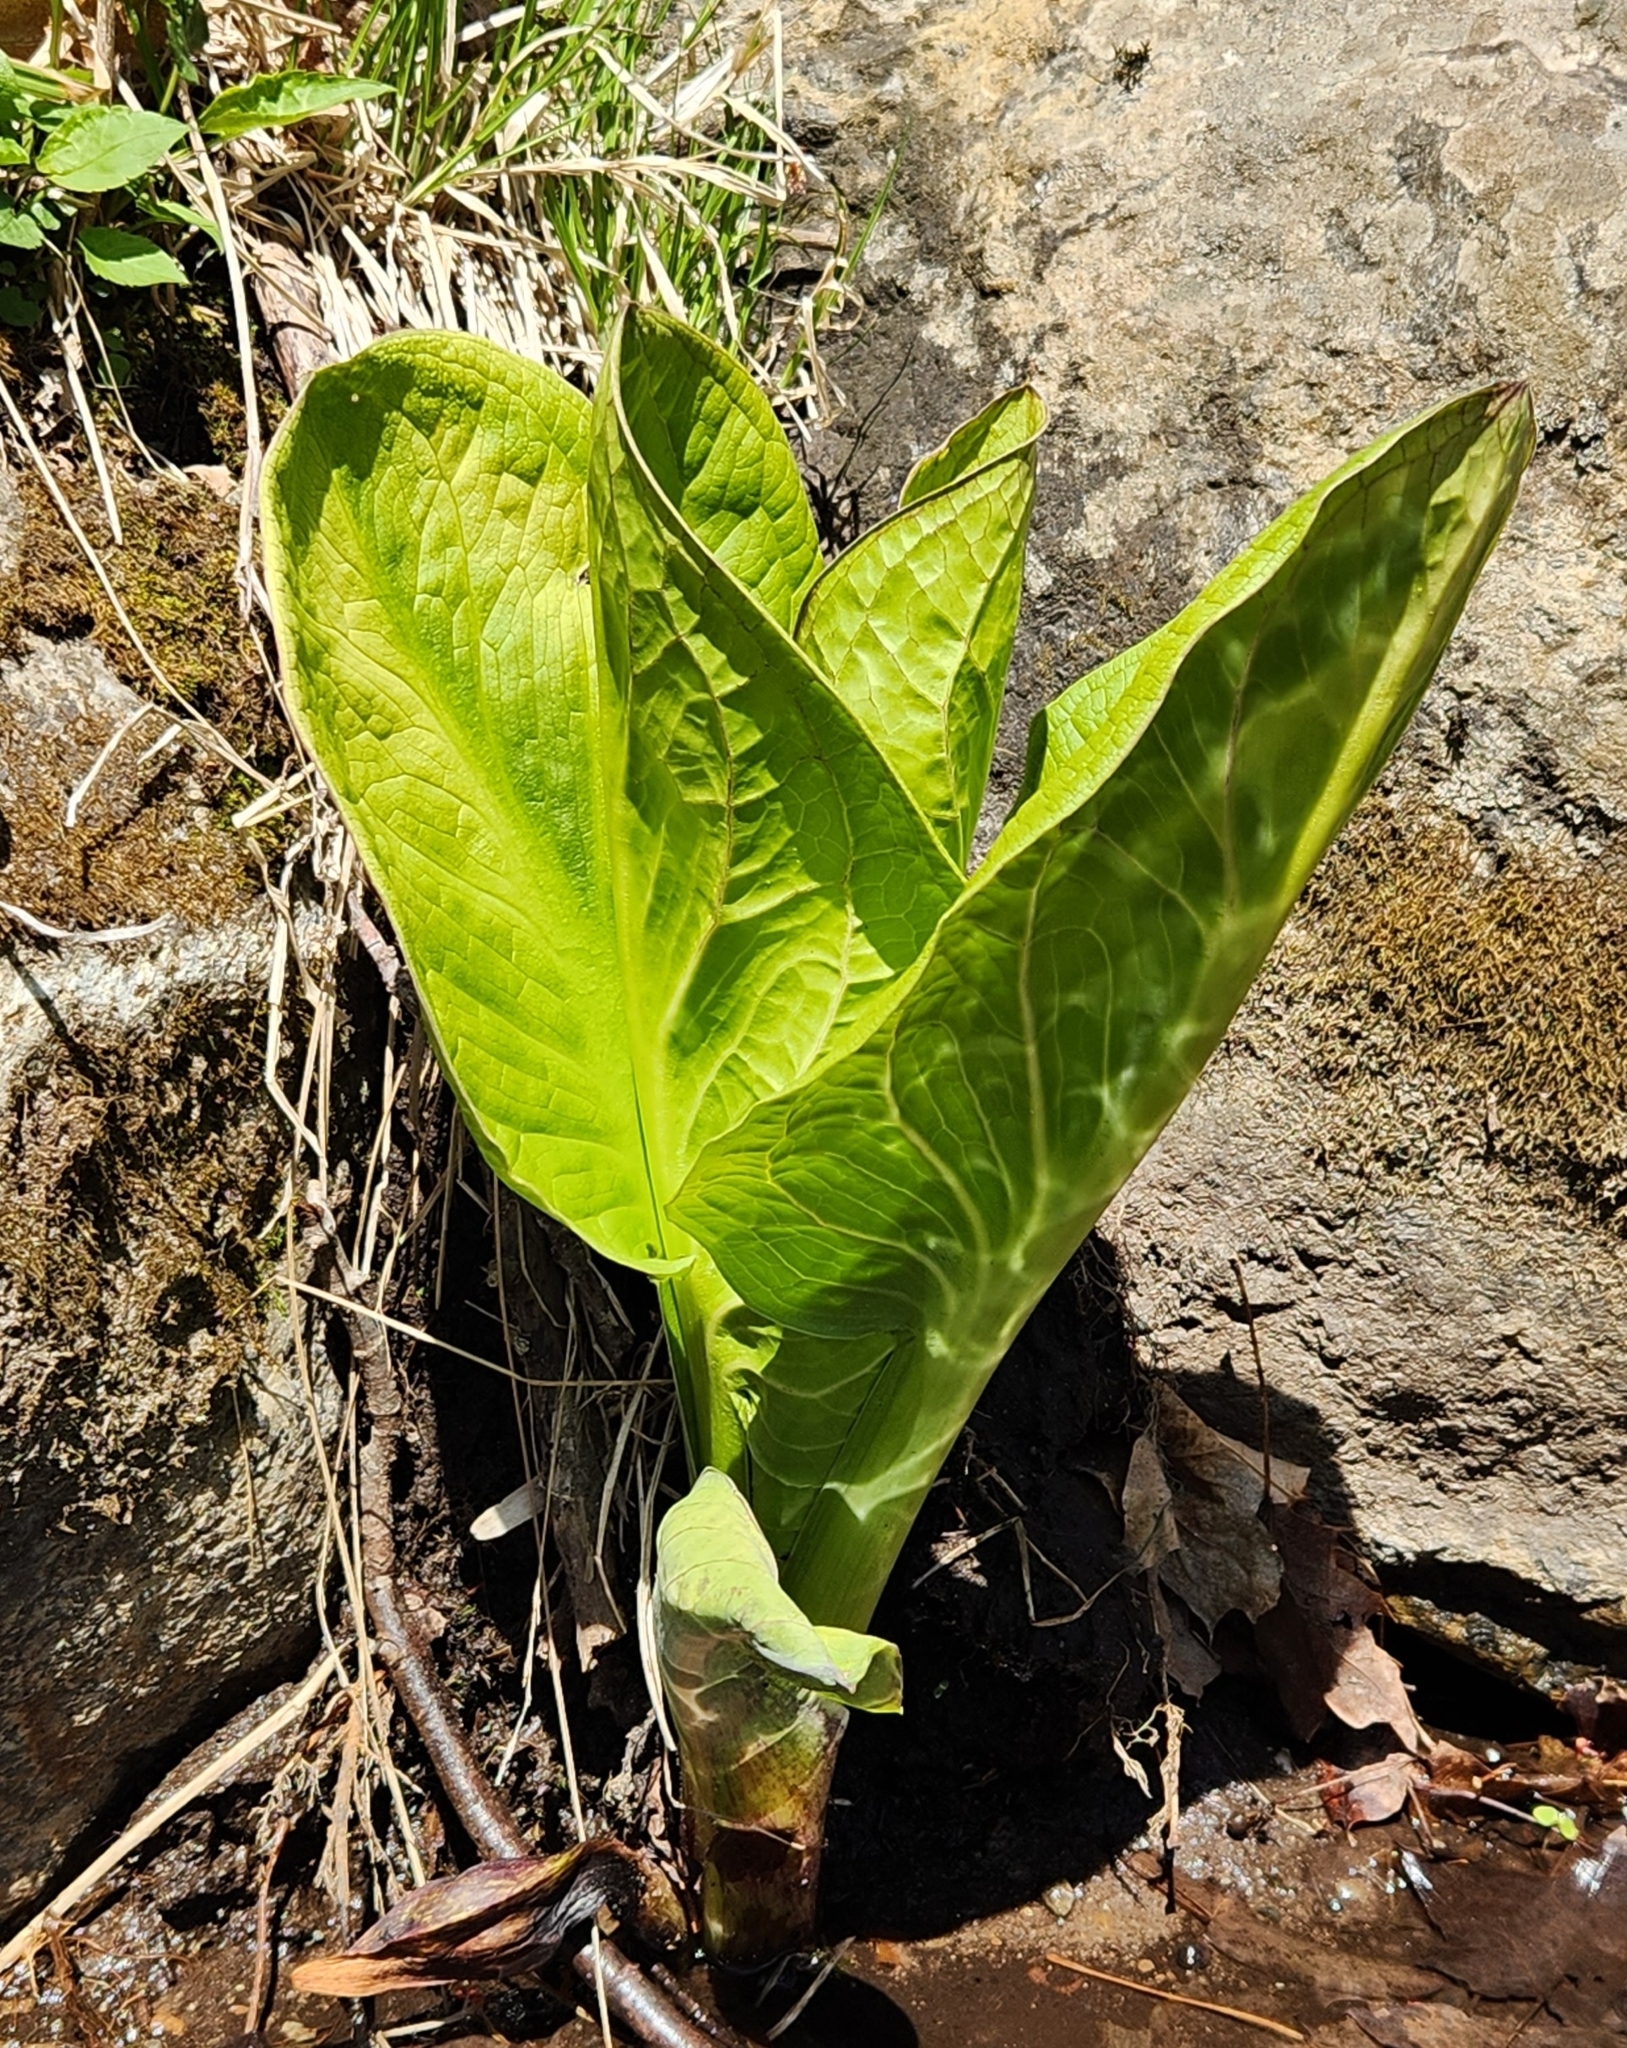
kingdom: Plantae
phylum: Tracheophyta
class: Liliopsida
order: Alismatales
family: Araceae
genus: Symplocarpus
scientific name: Symplocarpus foetidus
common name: Eastern skunk cabbage
